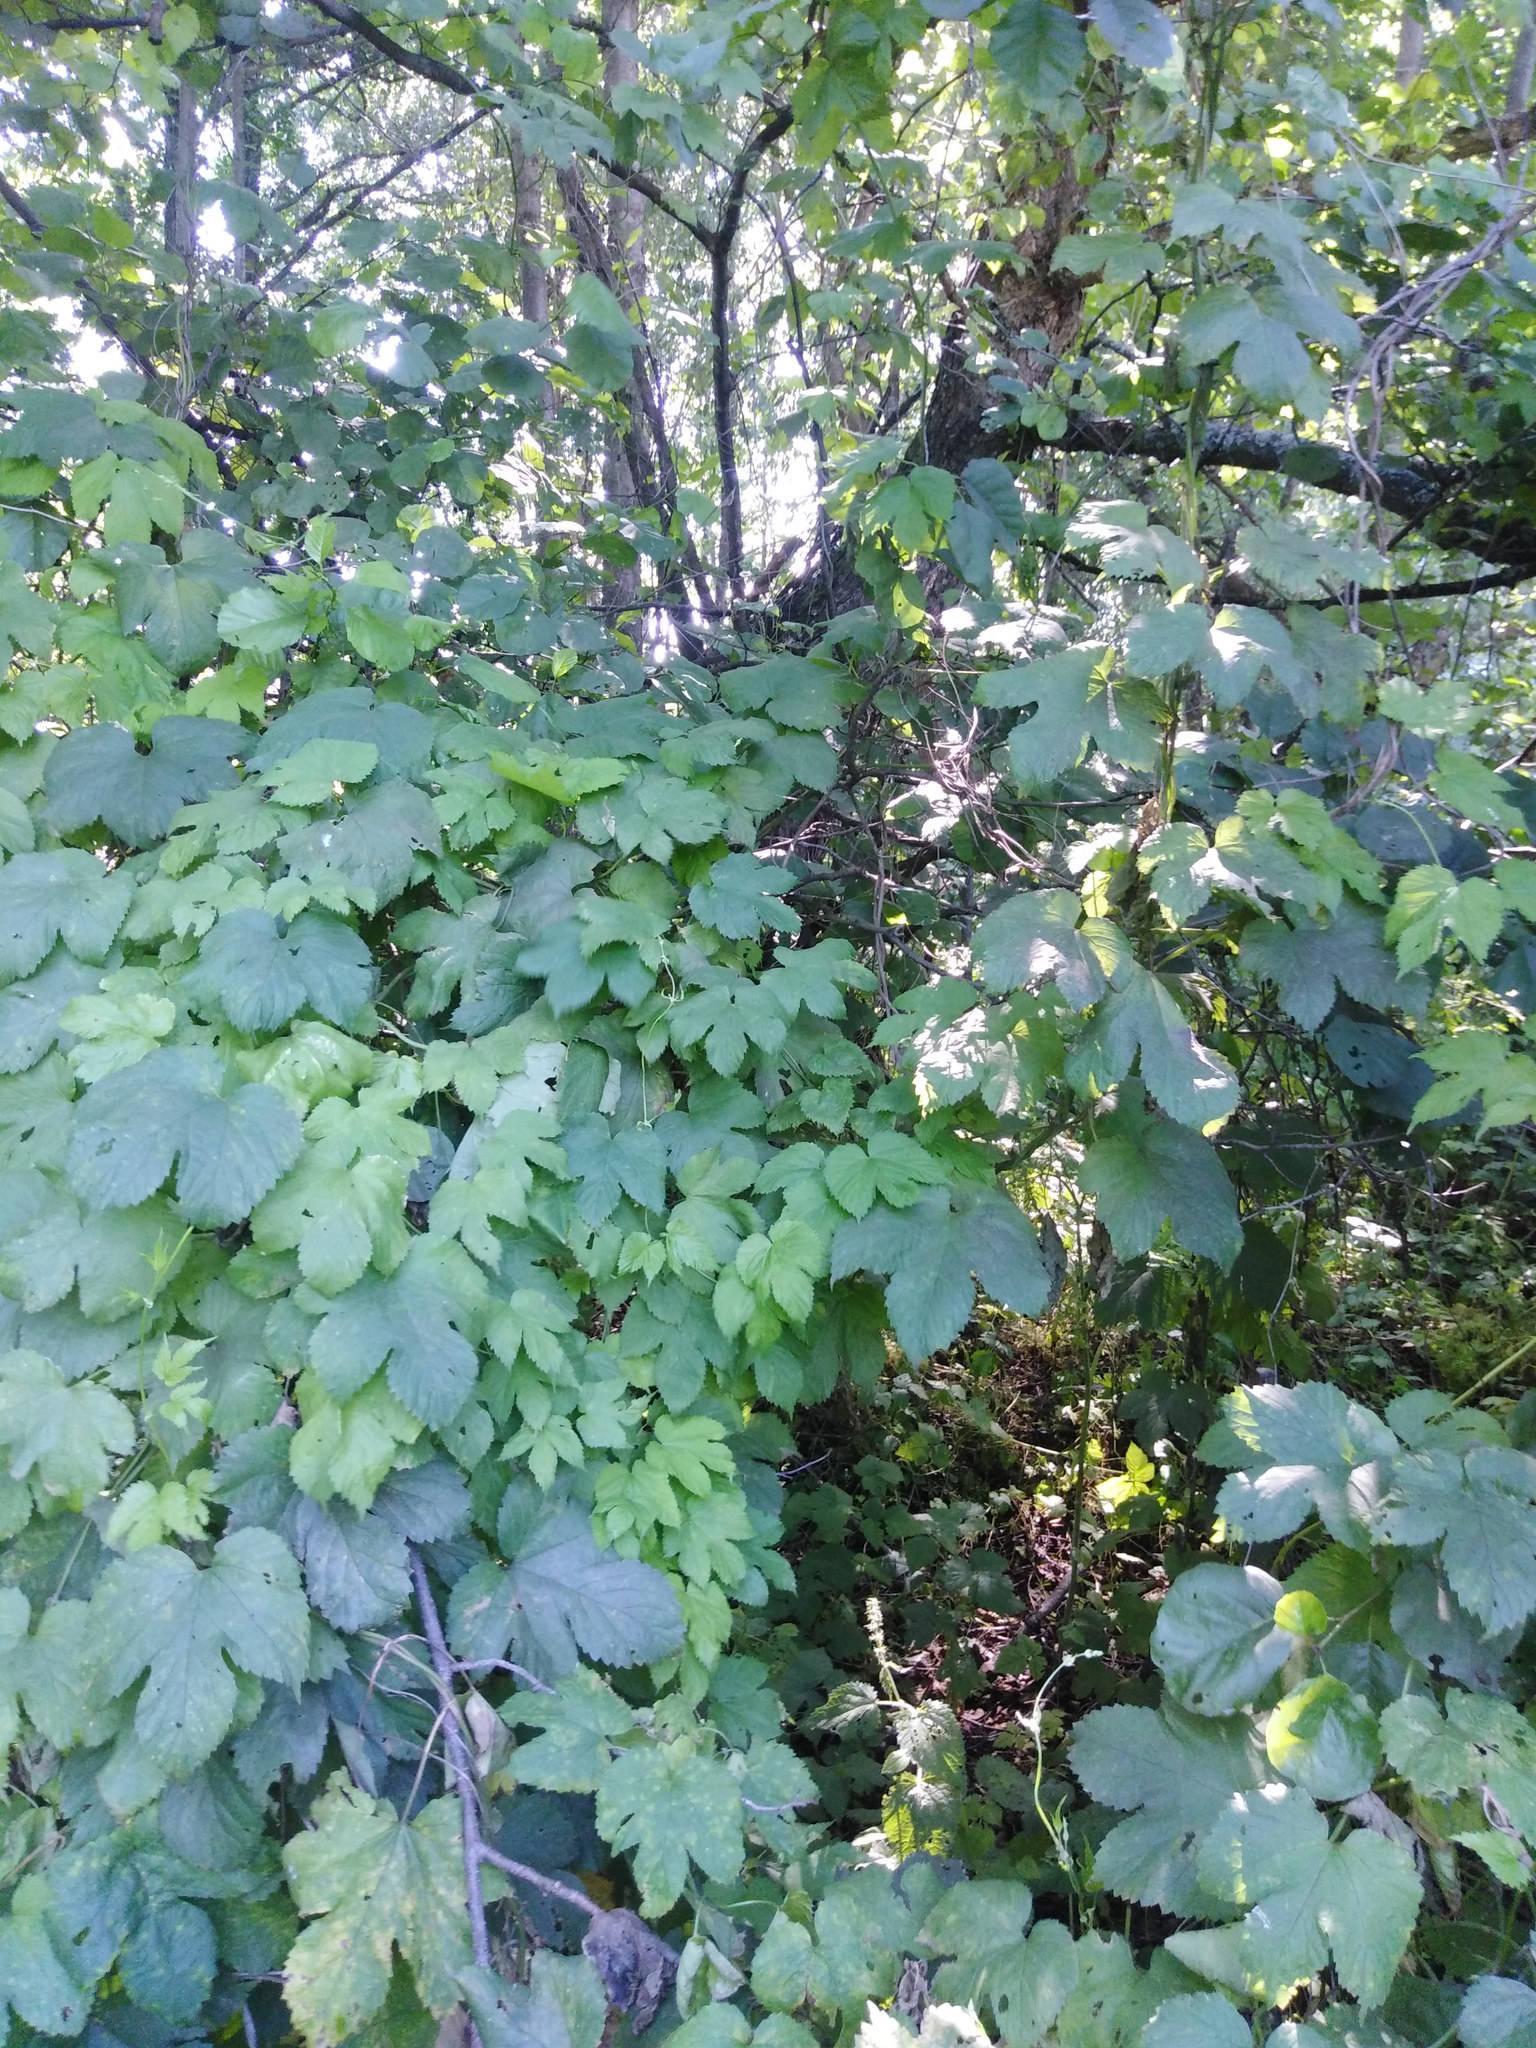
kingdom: Plantae
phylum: Tracheophyta
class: Magnoliopsida
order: Rosales
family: Cannabaceae
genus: Humulus
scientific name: Humulus lupulus
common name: Hop
